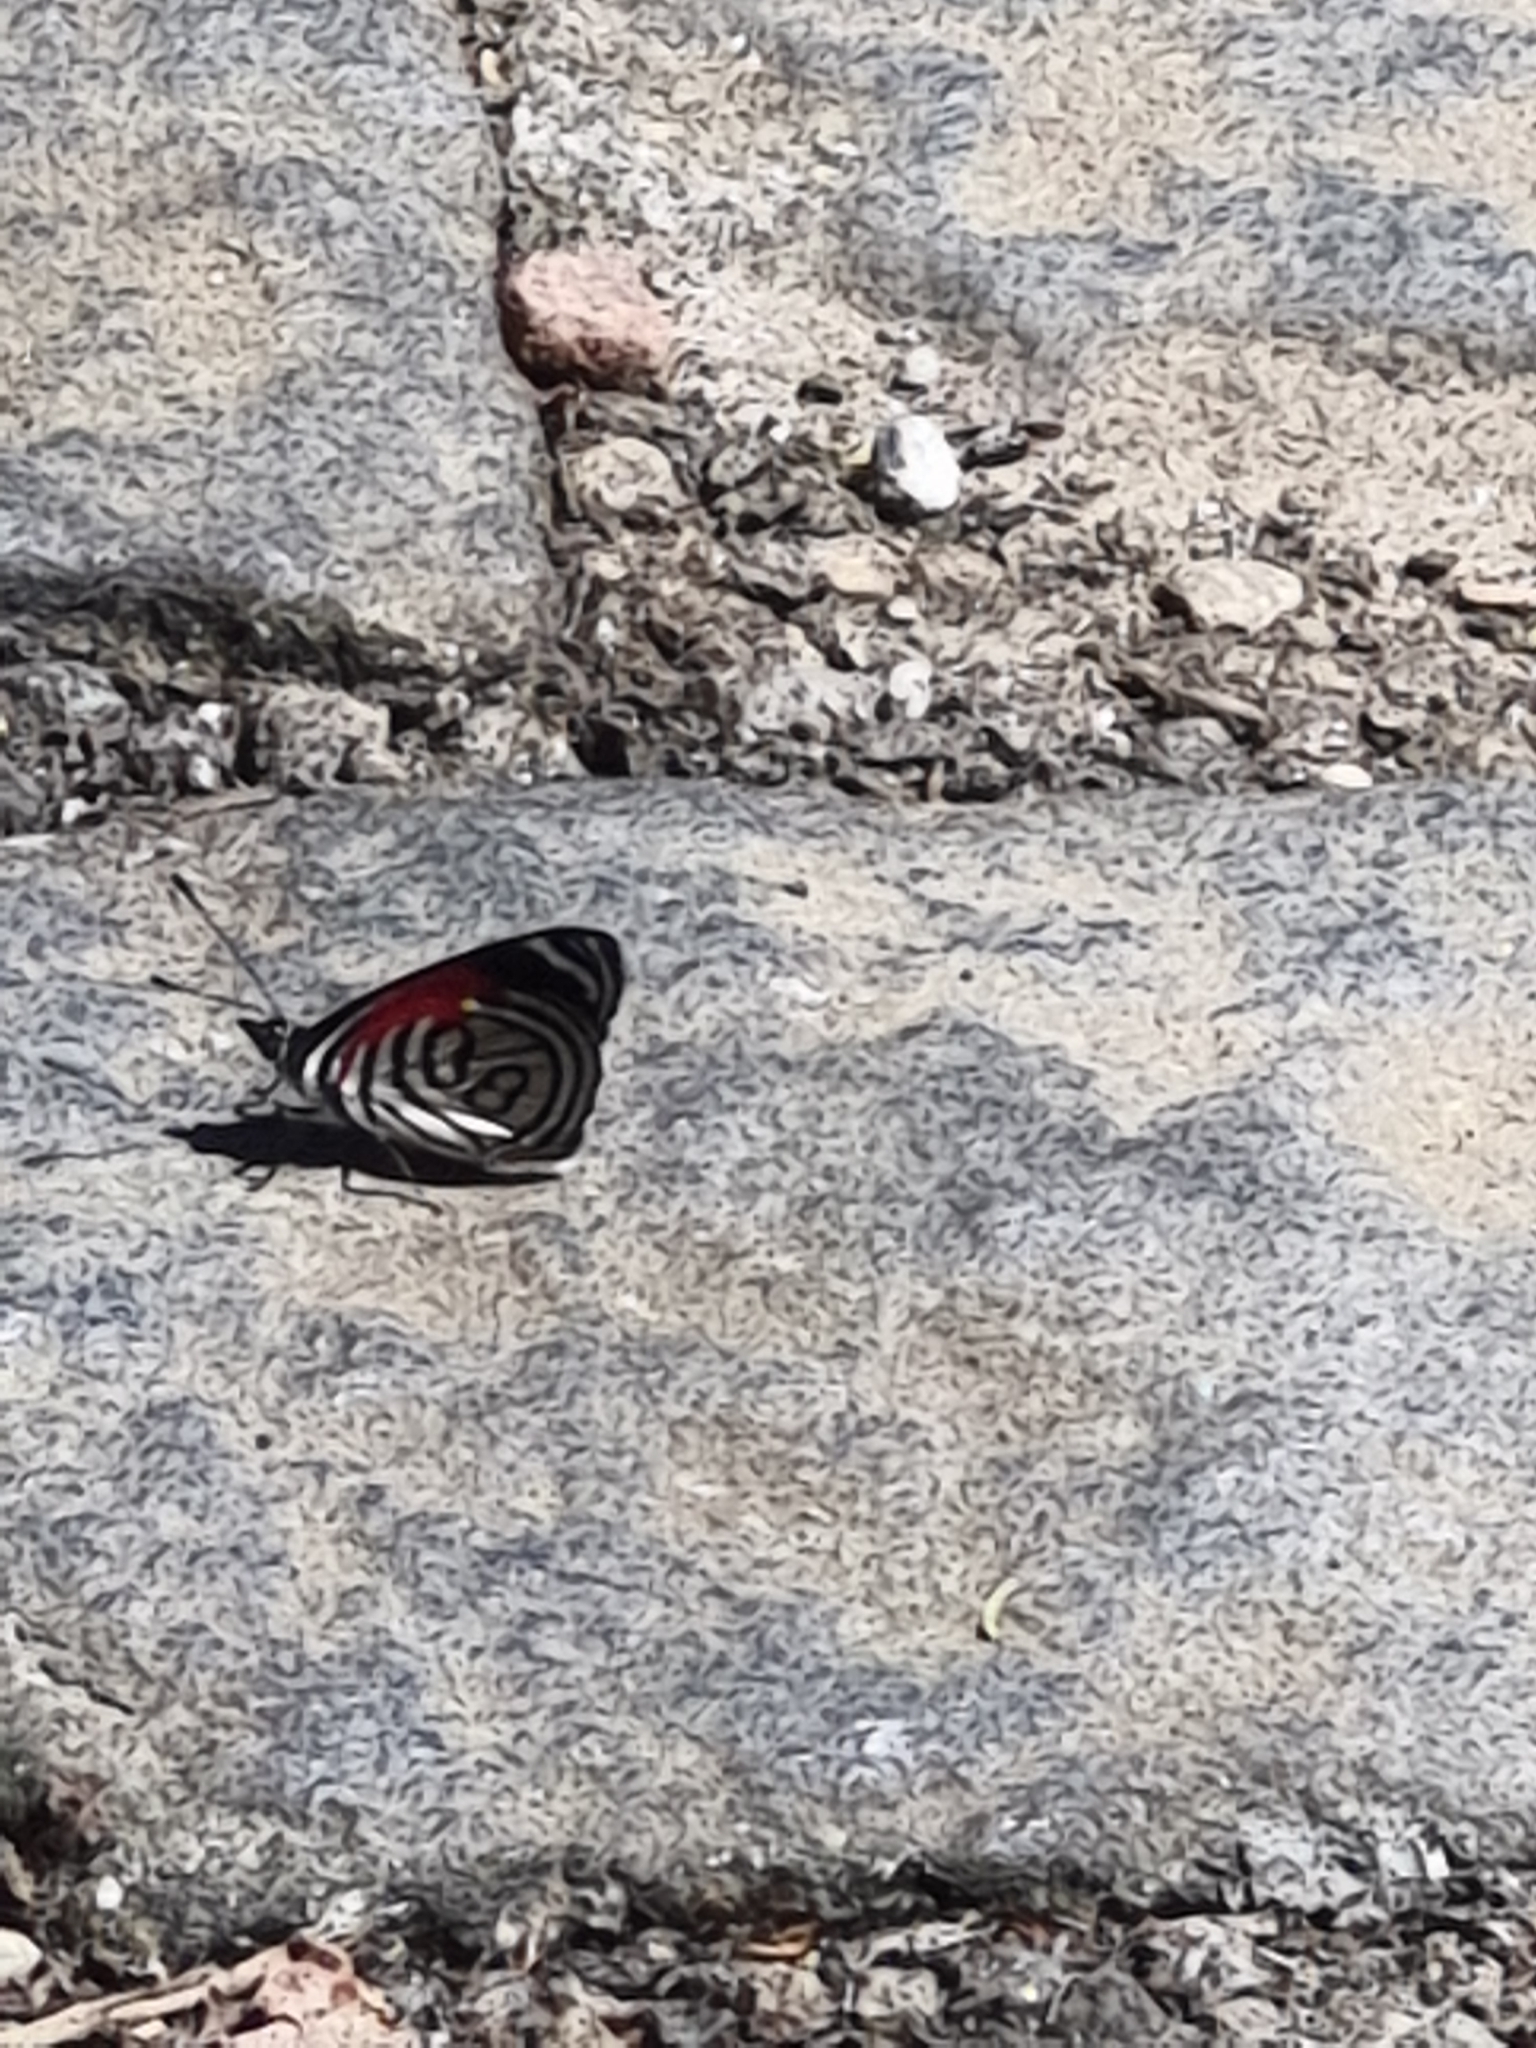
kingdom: Animalia
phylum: Arthropoda
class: Insecta
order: Lepidoptera
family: Nymphalidae
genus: Diaethria
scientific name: Diaethria candrena
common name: Number eighty
